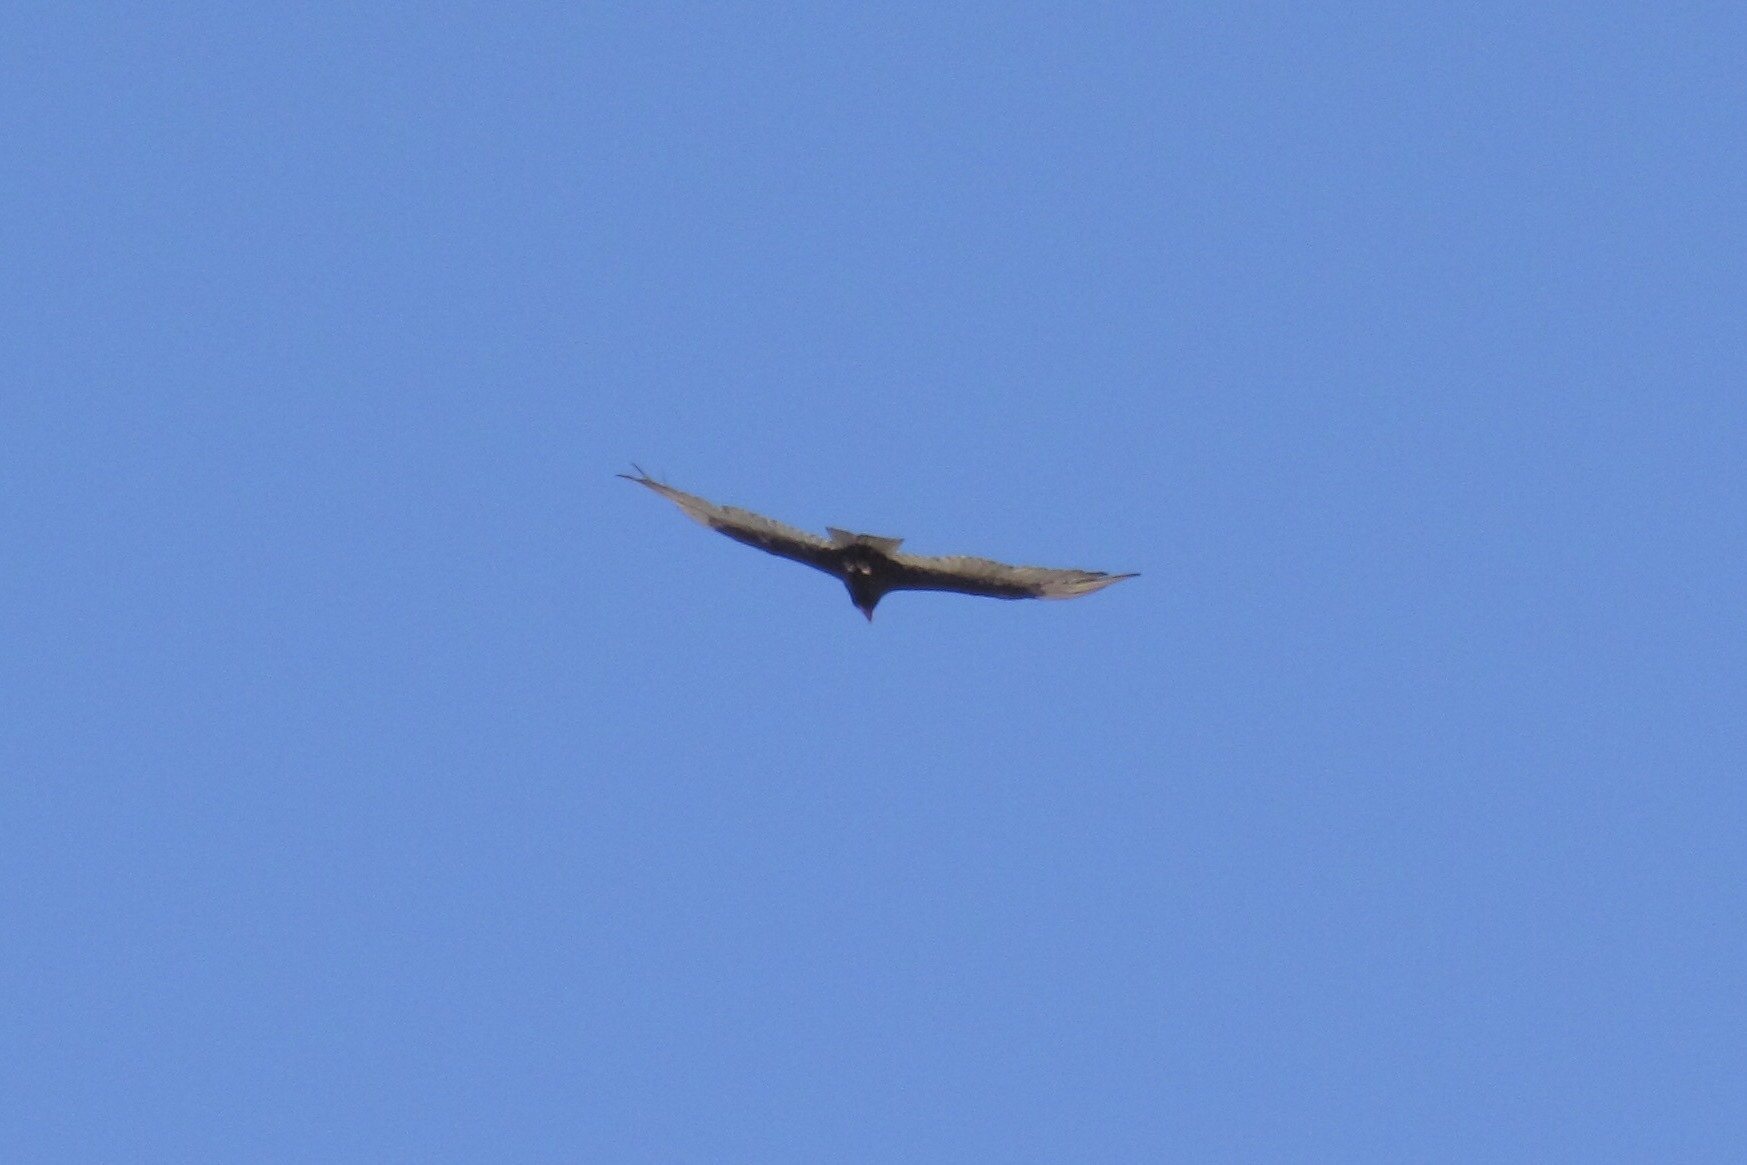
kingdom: Animalia
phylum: Chordata
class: Aves
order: Accipitriformes
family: Cathartidae
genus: Cathartes
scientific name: Cathartes aura
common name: Turkey vulture
